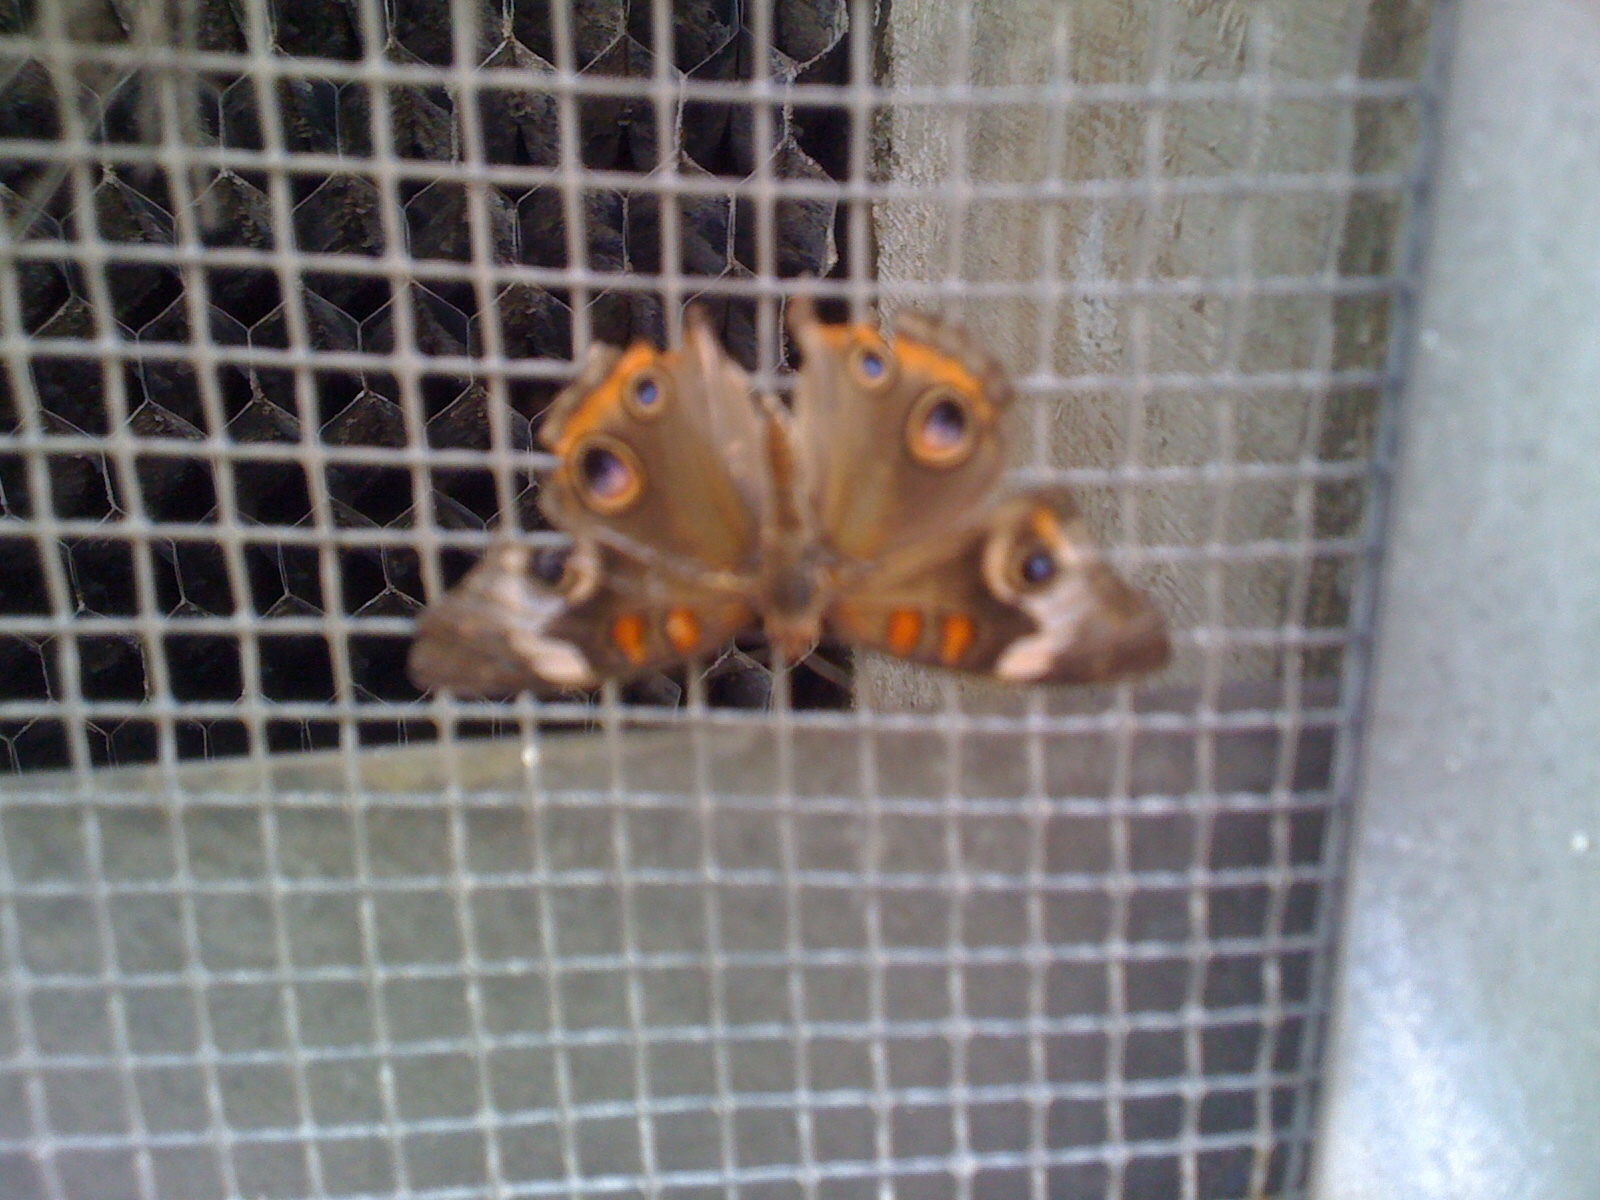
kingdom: Animalia
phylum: Arthropoda
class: Insecta
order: Lepidoptera
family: Nymphalidae
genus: Junonia
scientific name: Junonia coenia
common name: Common buckeye
